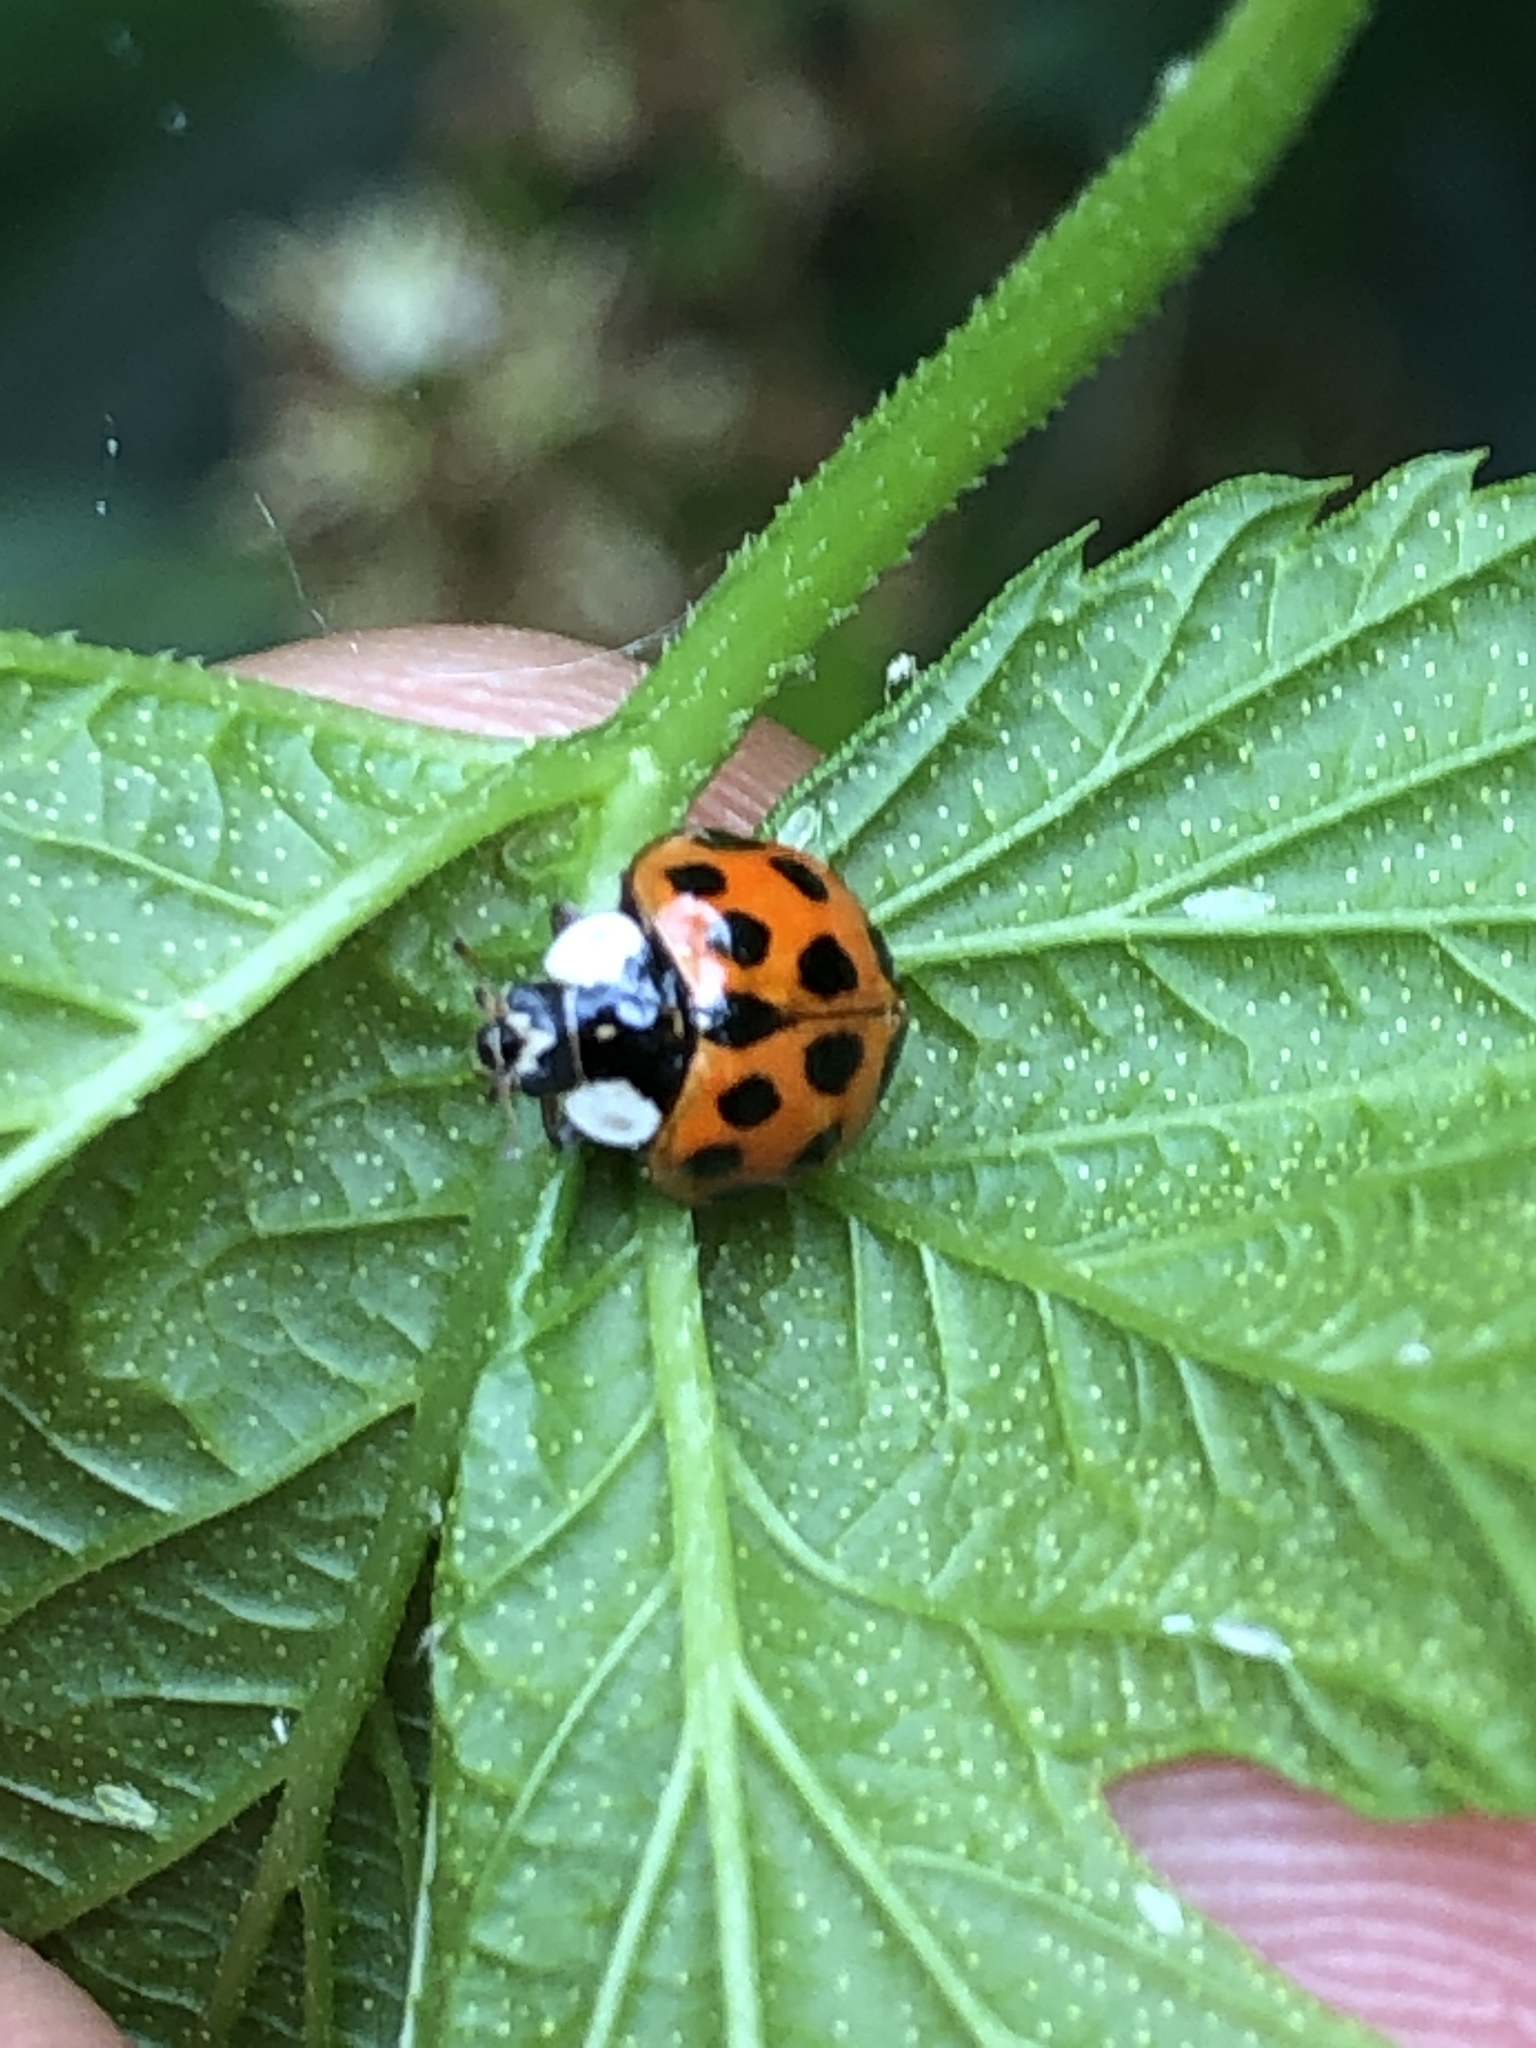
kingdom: Animalia
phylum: Arthropoda
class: Insecta
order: Coleoptera
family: Coccinellidae
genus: Harmonia
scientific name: Harmonia axyridis
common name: Harlequin ladybird
